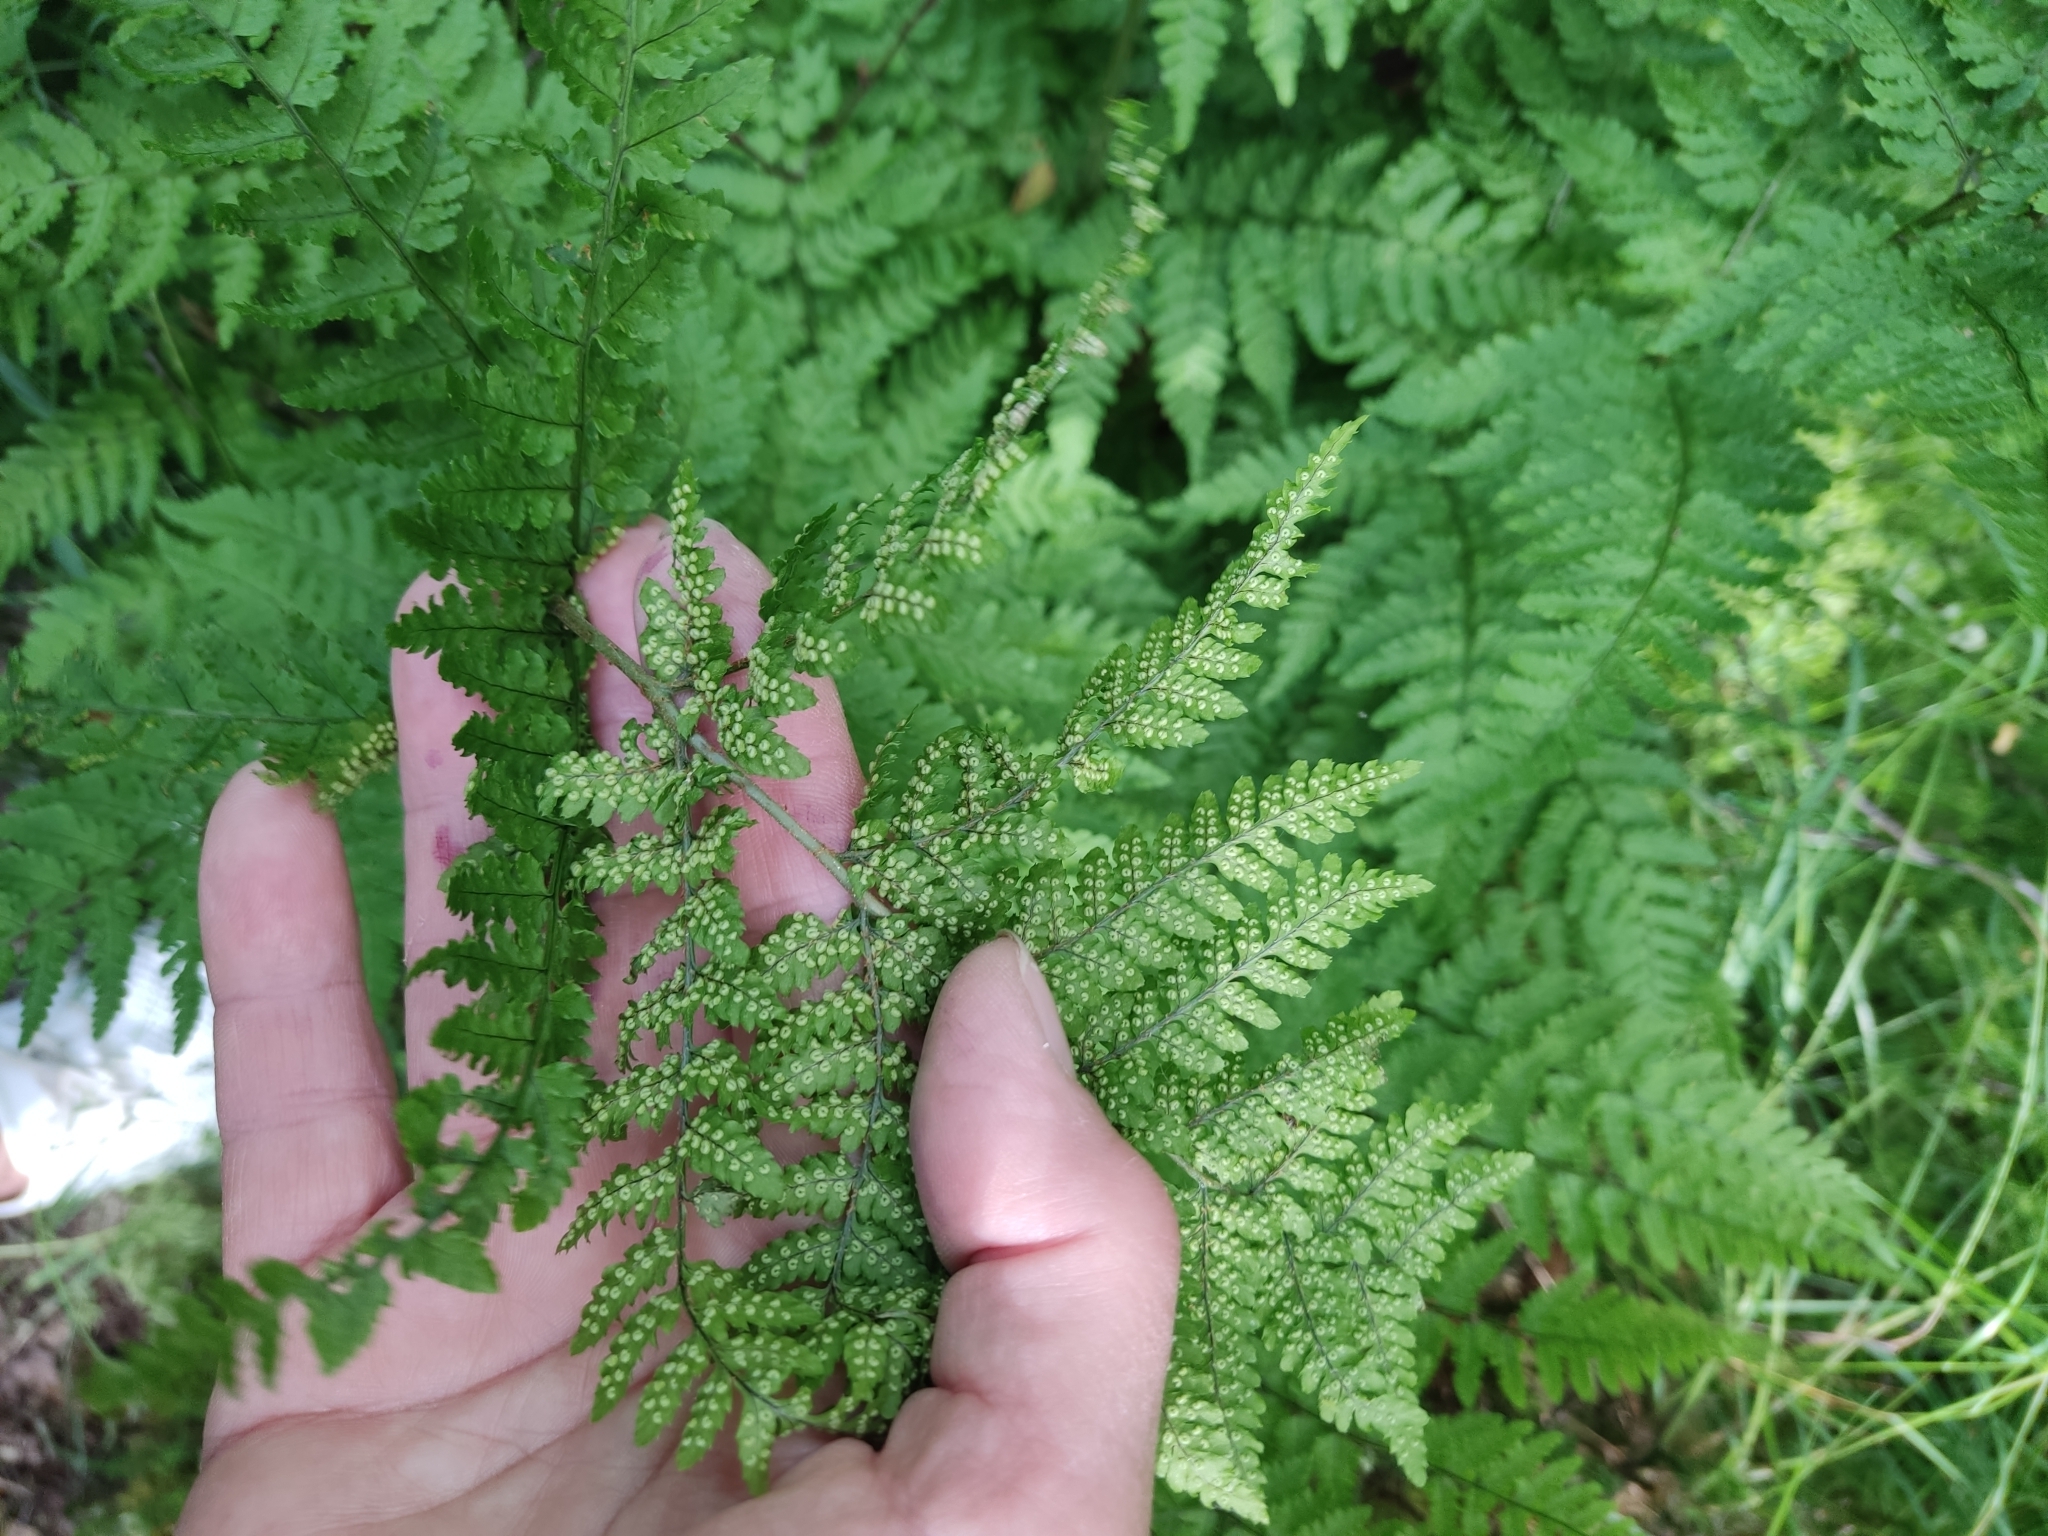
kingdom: Plantae
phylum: Tracheophyta
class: Polypodiopsida
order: Polypodiales
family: Dryopteridaceae
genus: Dryopteris
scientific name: Dryopteris aemula
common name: Hay-scented buckler-fern
